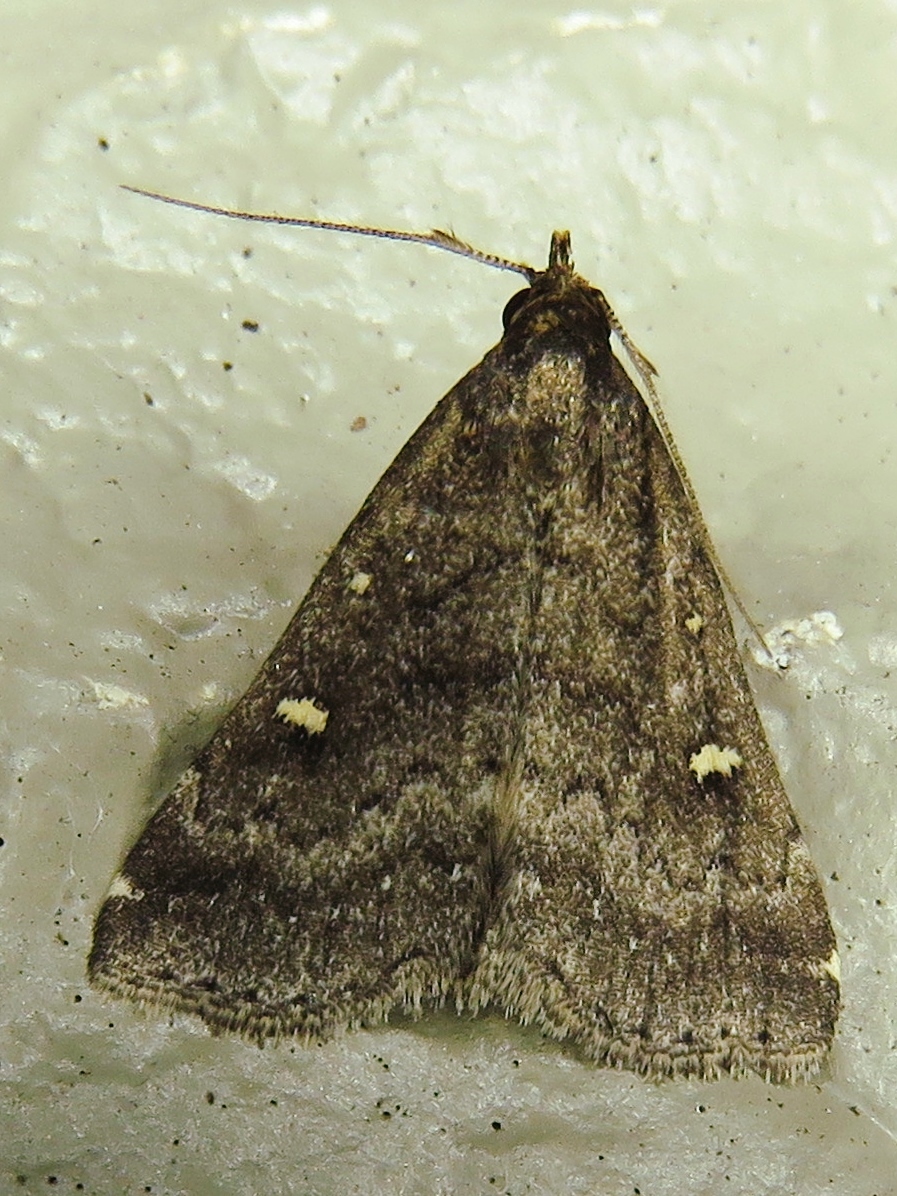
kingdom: Animalia
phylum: Arthropoda
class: Insecta
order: Lepidoptera
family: Erebidae
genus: Tetanolita
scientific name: Tetanolita mynesalis
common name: Smoky tetanolita moth
